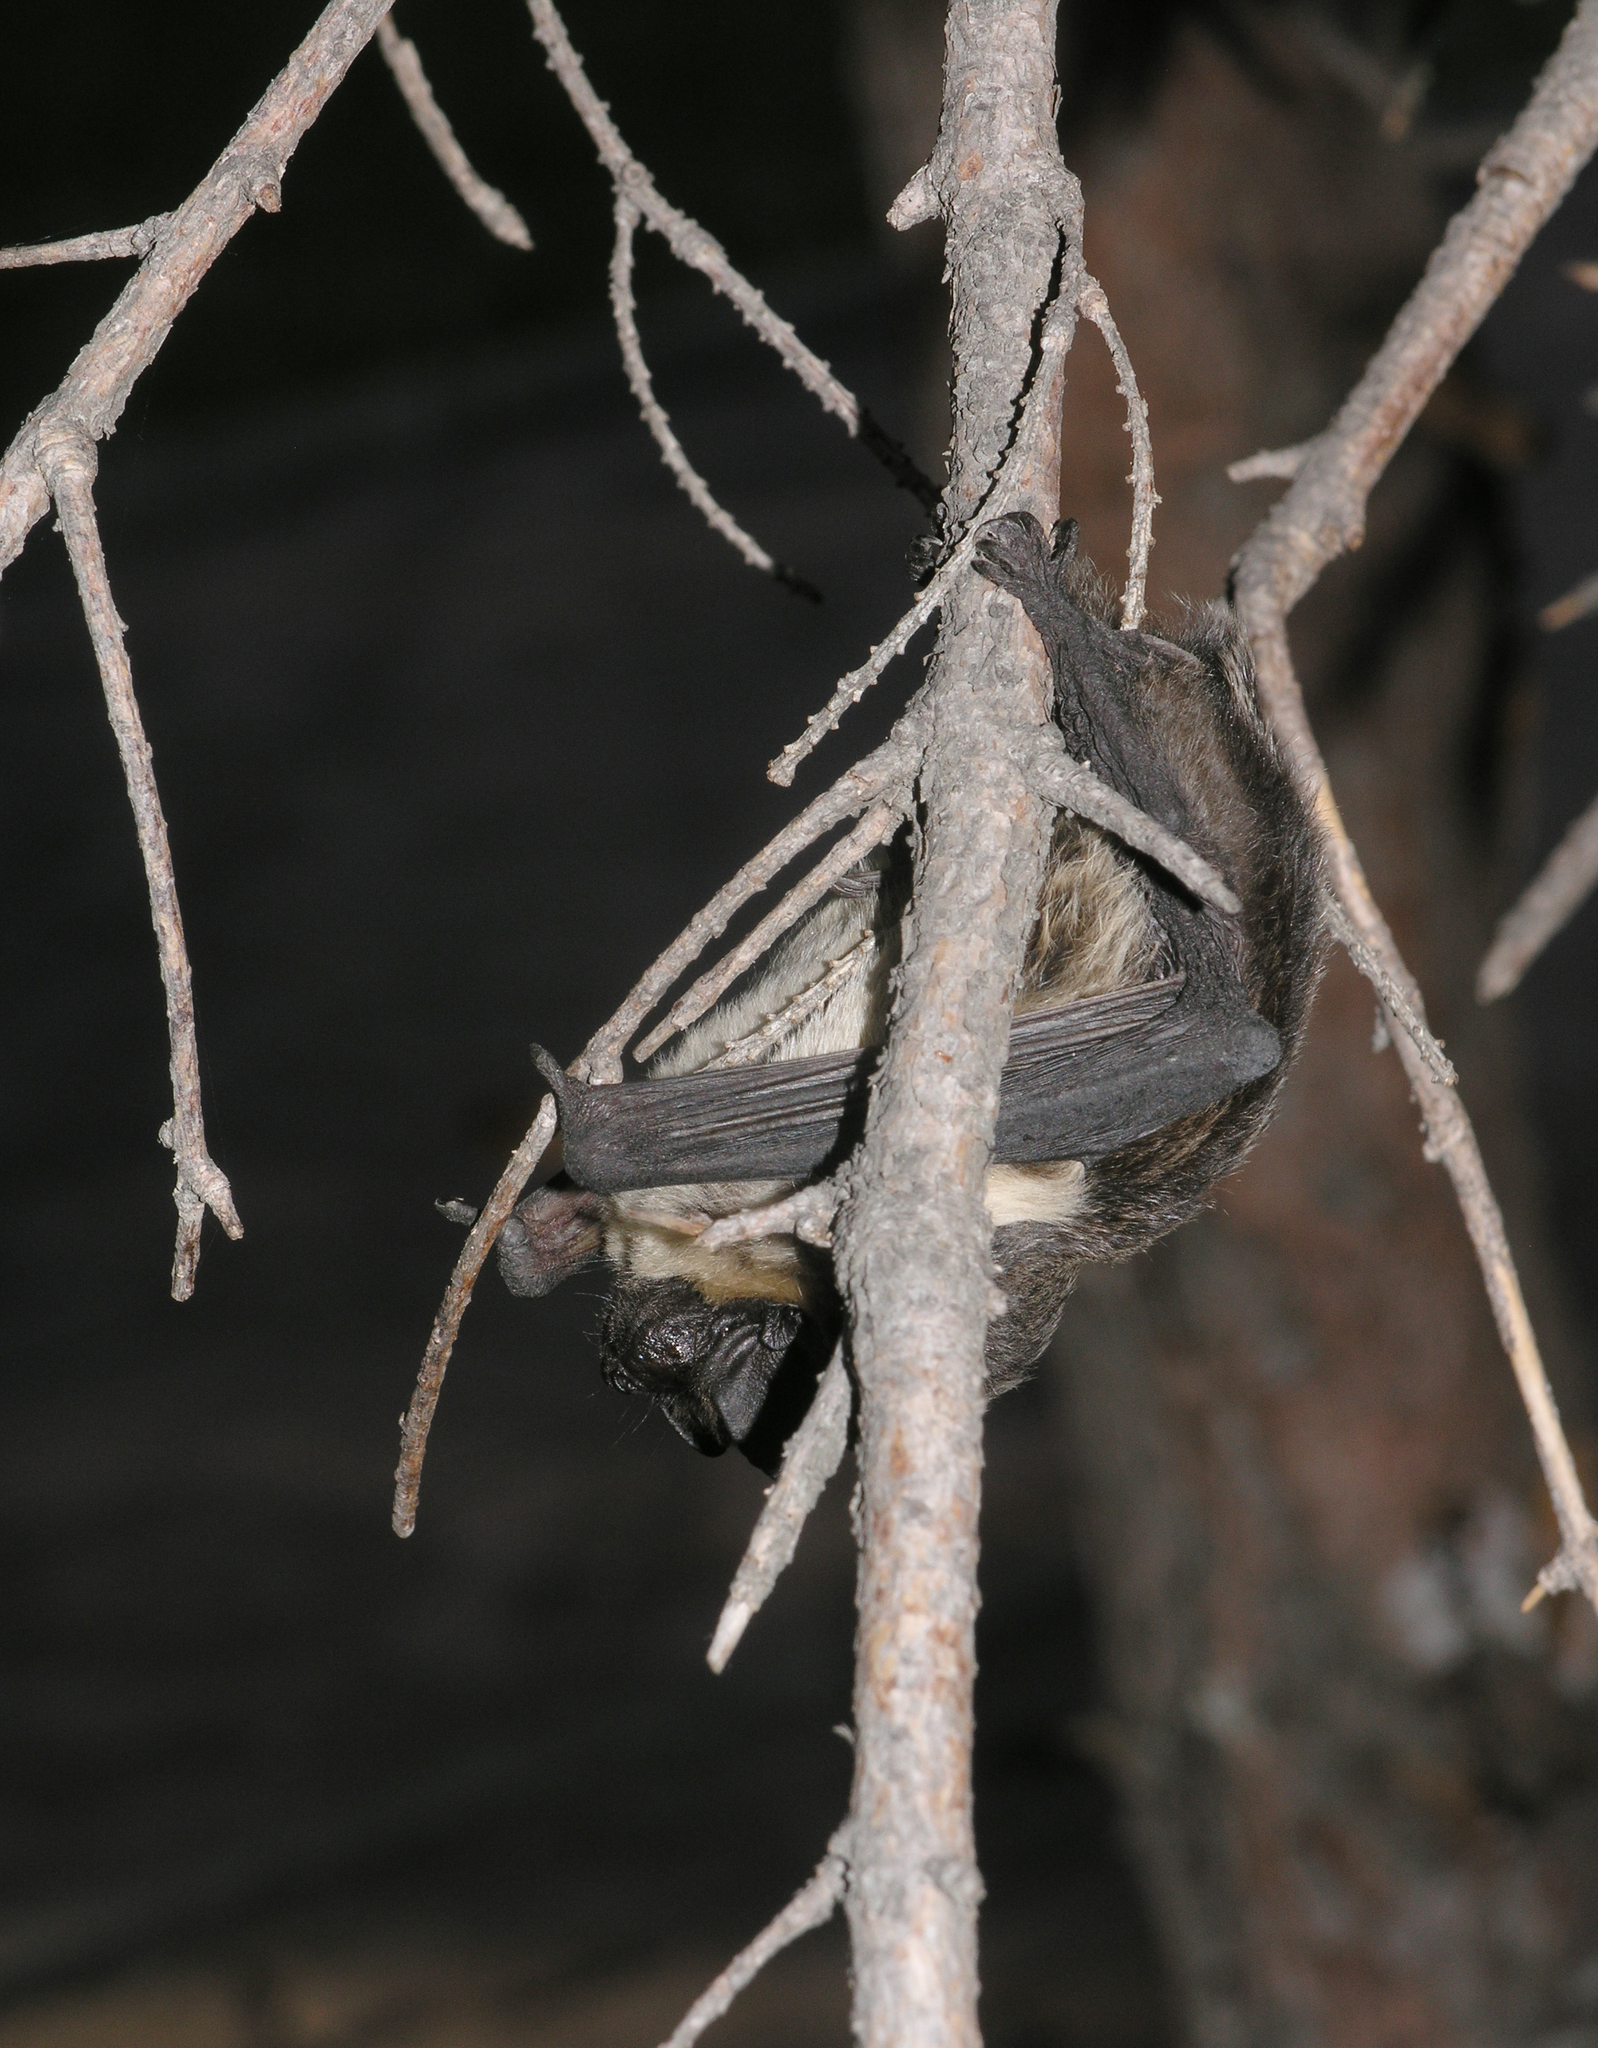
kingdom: Animalia
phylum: Chordata
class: Mammalia
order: Chiroptera
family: Vespertilionidae
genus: Vespertilio
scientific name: Vespertilio murinus
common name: Particolored bat
